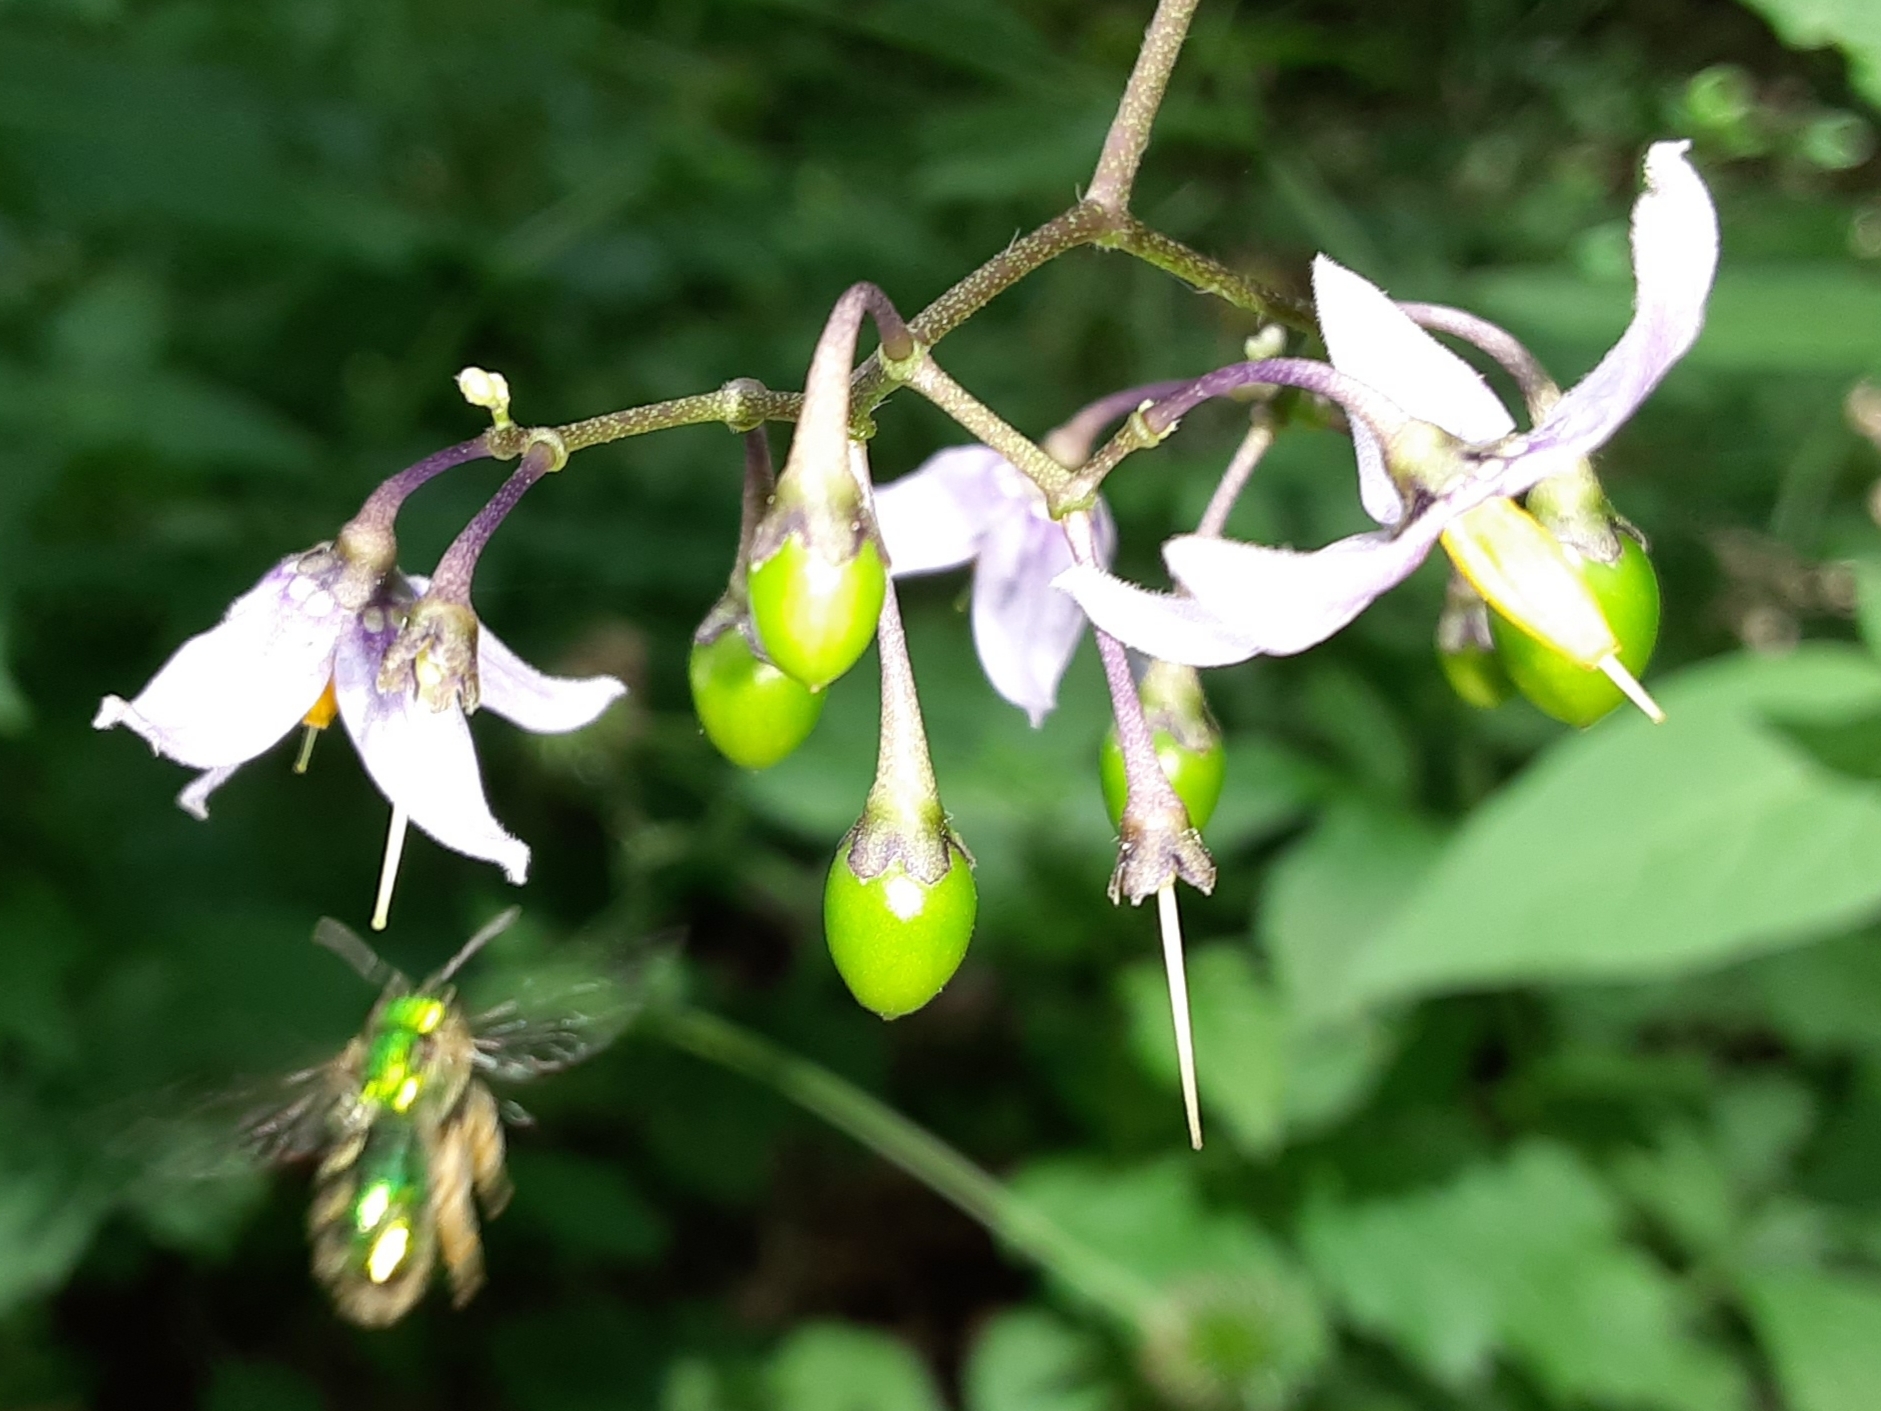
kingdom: Plantae
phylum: Tracheophyta
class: Magnoliopsida
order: Solanales
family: Solanaceae
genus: Solanum
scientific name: Solanum dulcamara
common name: Climbing nightshade
